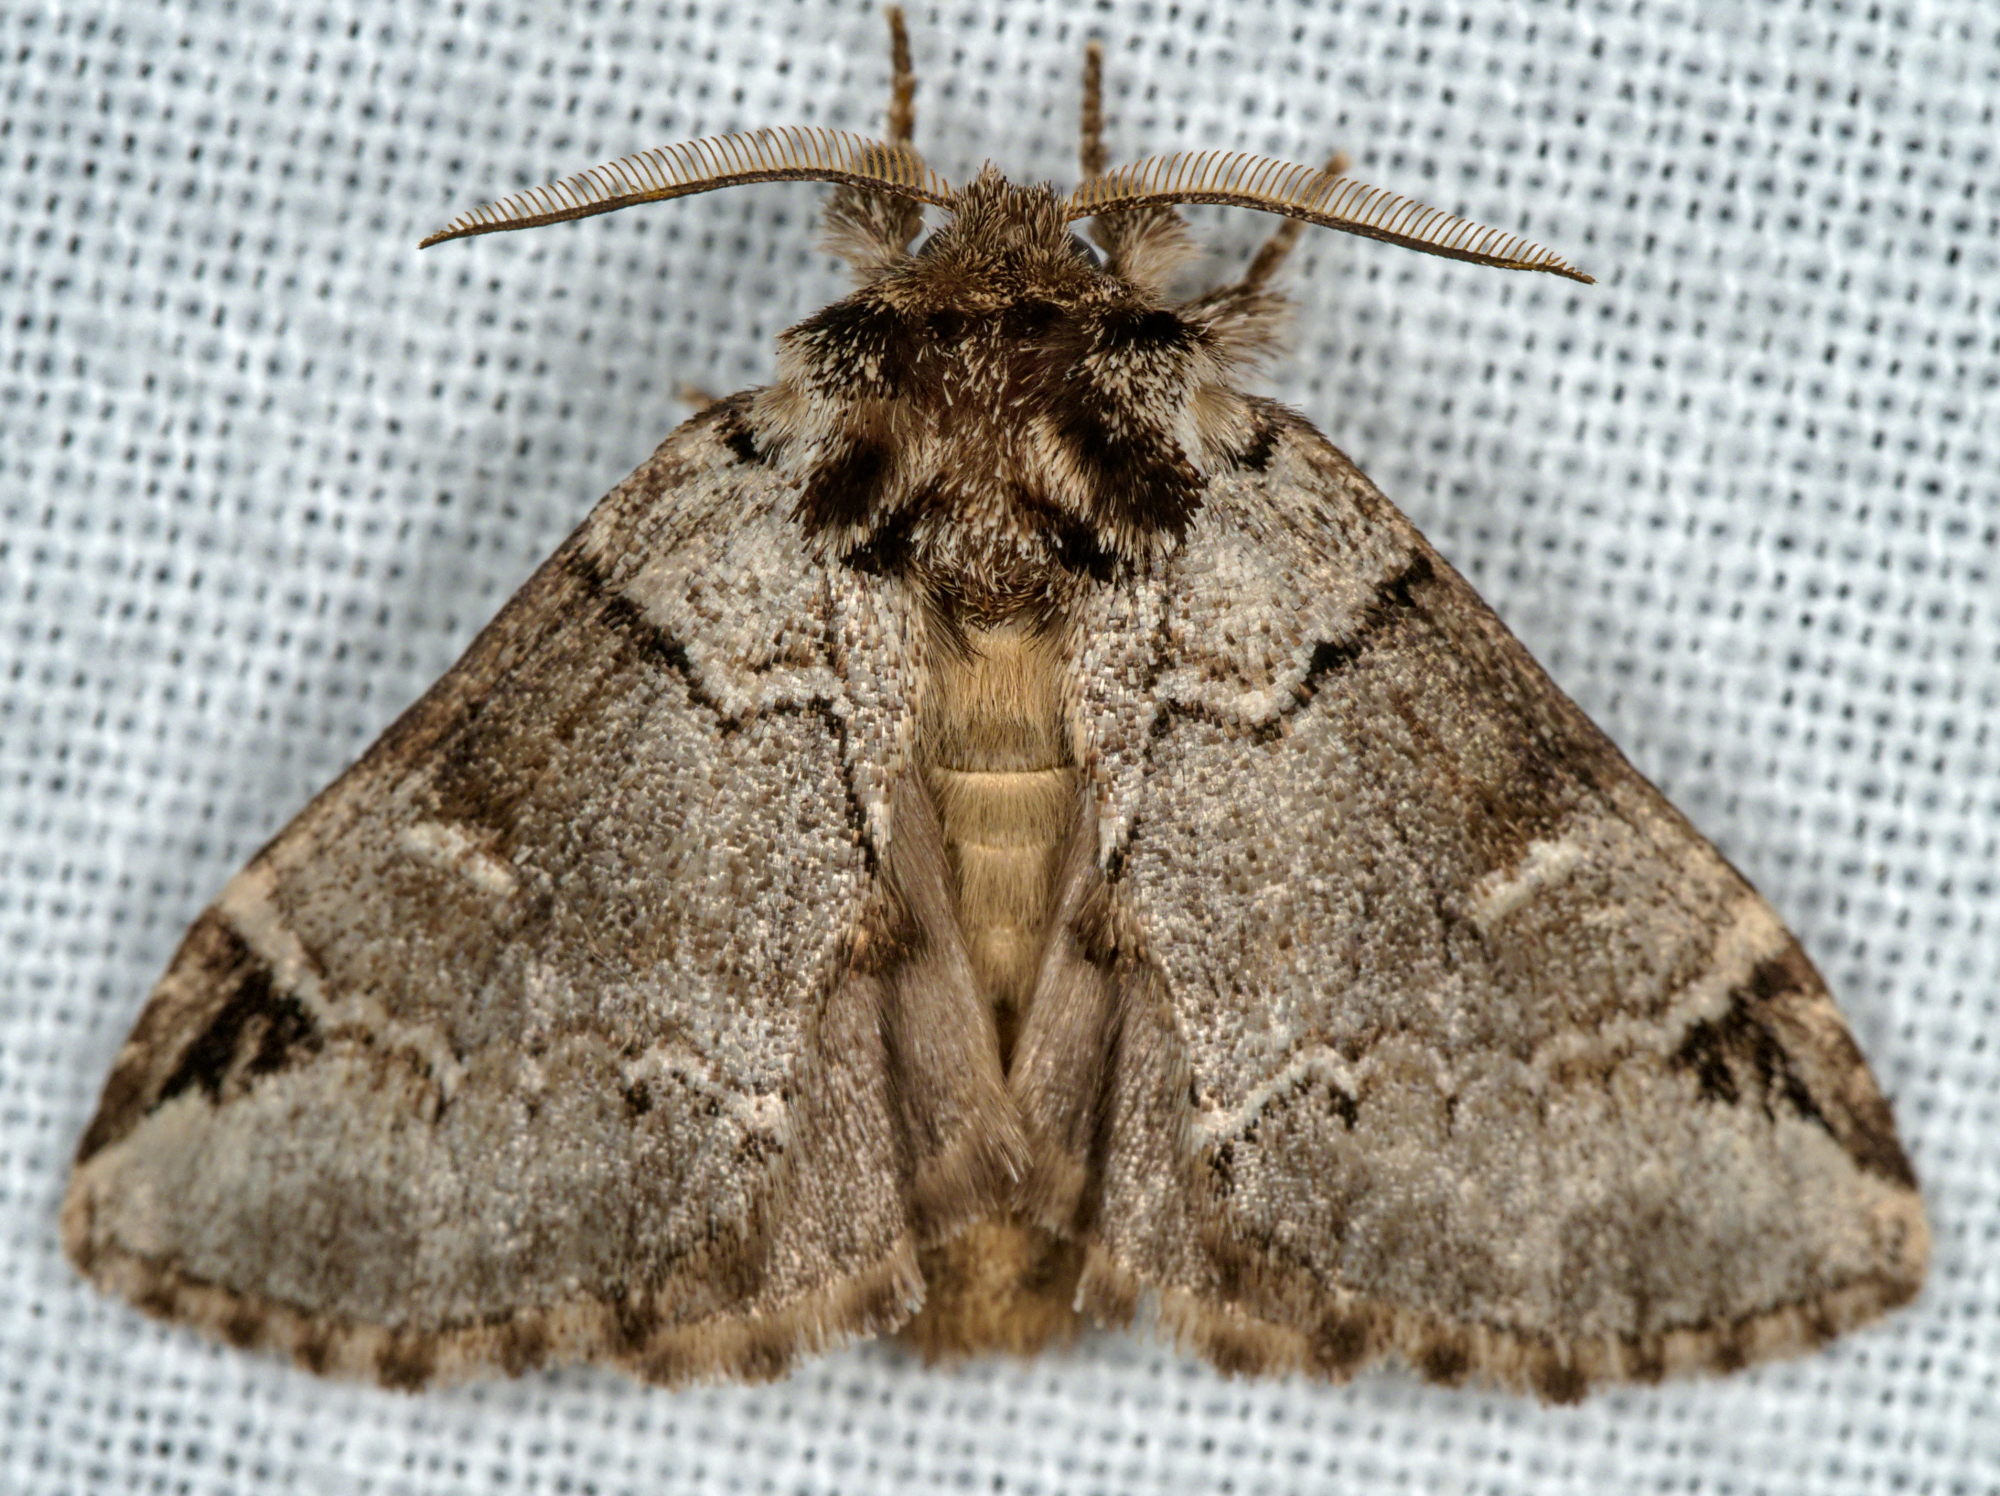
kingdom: Animalia
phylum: Arthropoda
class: Insecta
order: Lepidoptera
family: Notodontidae
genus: Drymonia
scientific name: Drymonia obliterata
